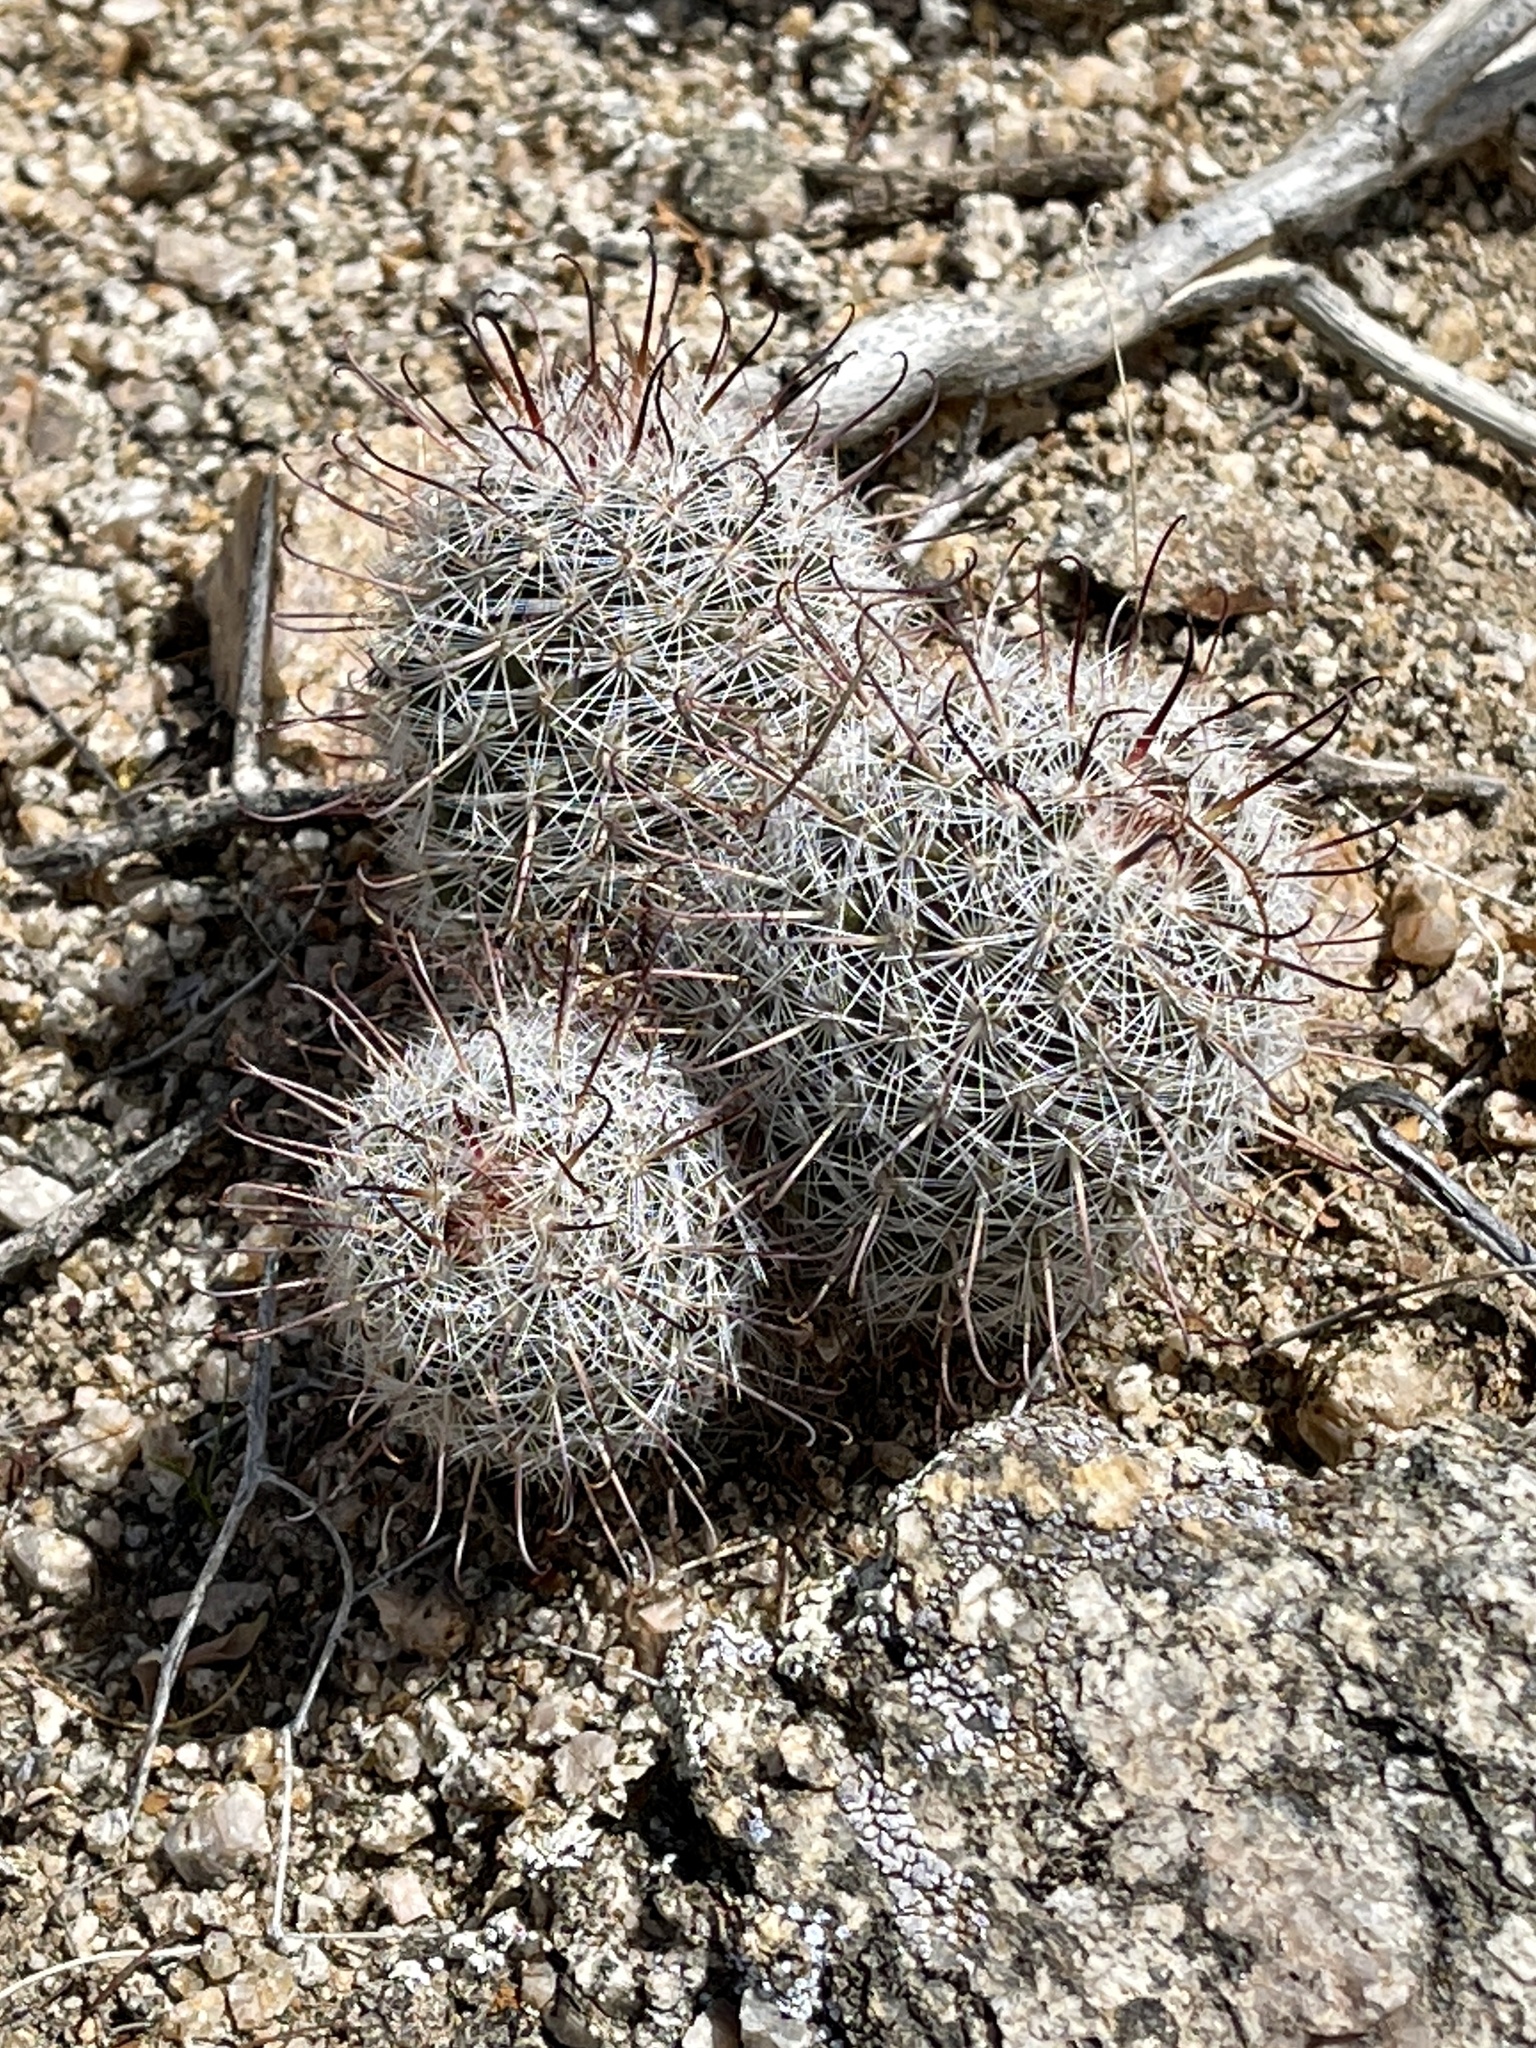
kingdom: Plantae
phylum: Tracheophyta
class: Magnoliopsida
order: Caryophyllales
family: Cactaceae
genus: Cochemiea
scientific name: Cochemiea grahamii
